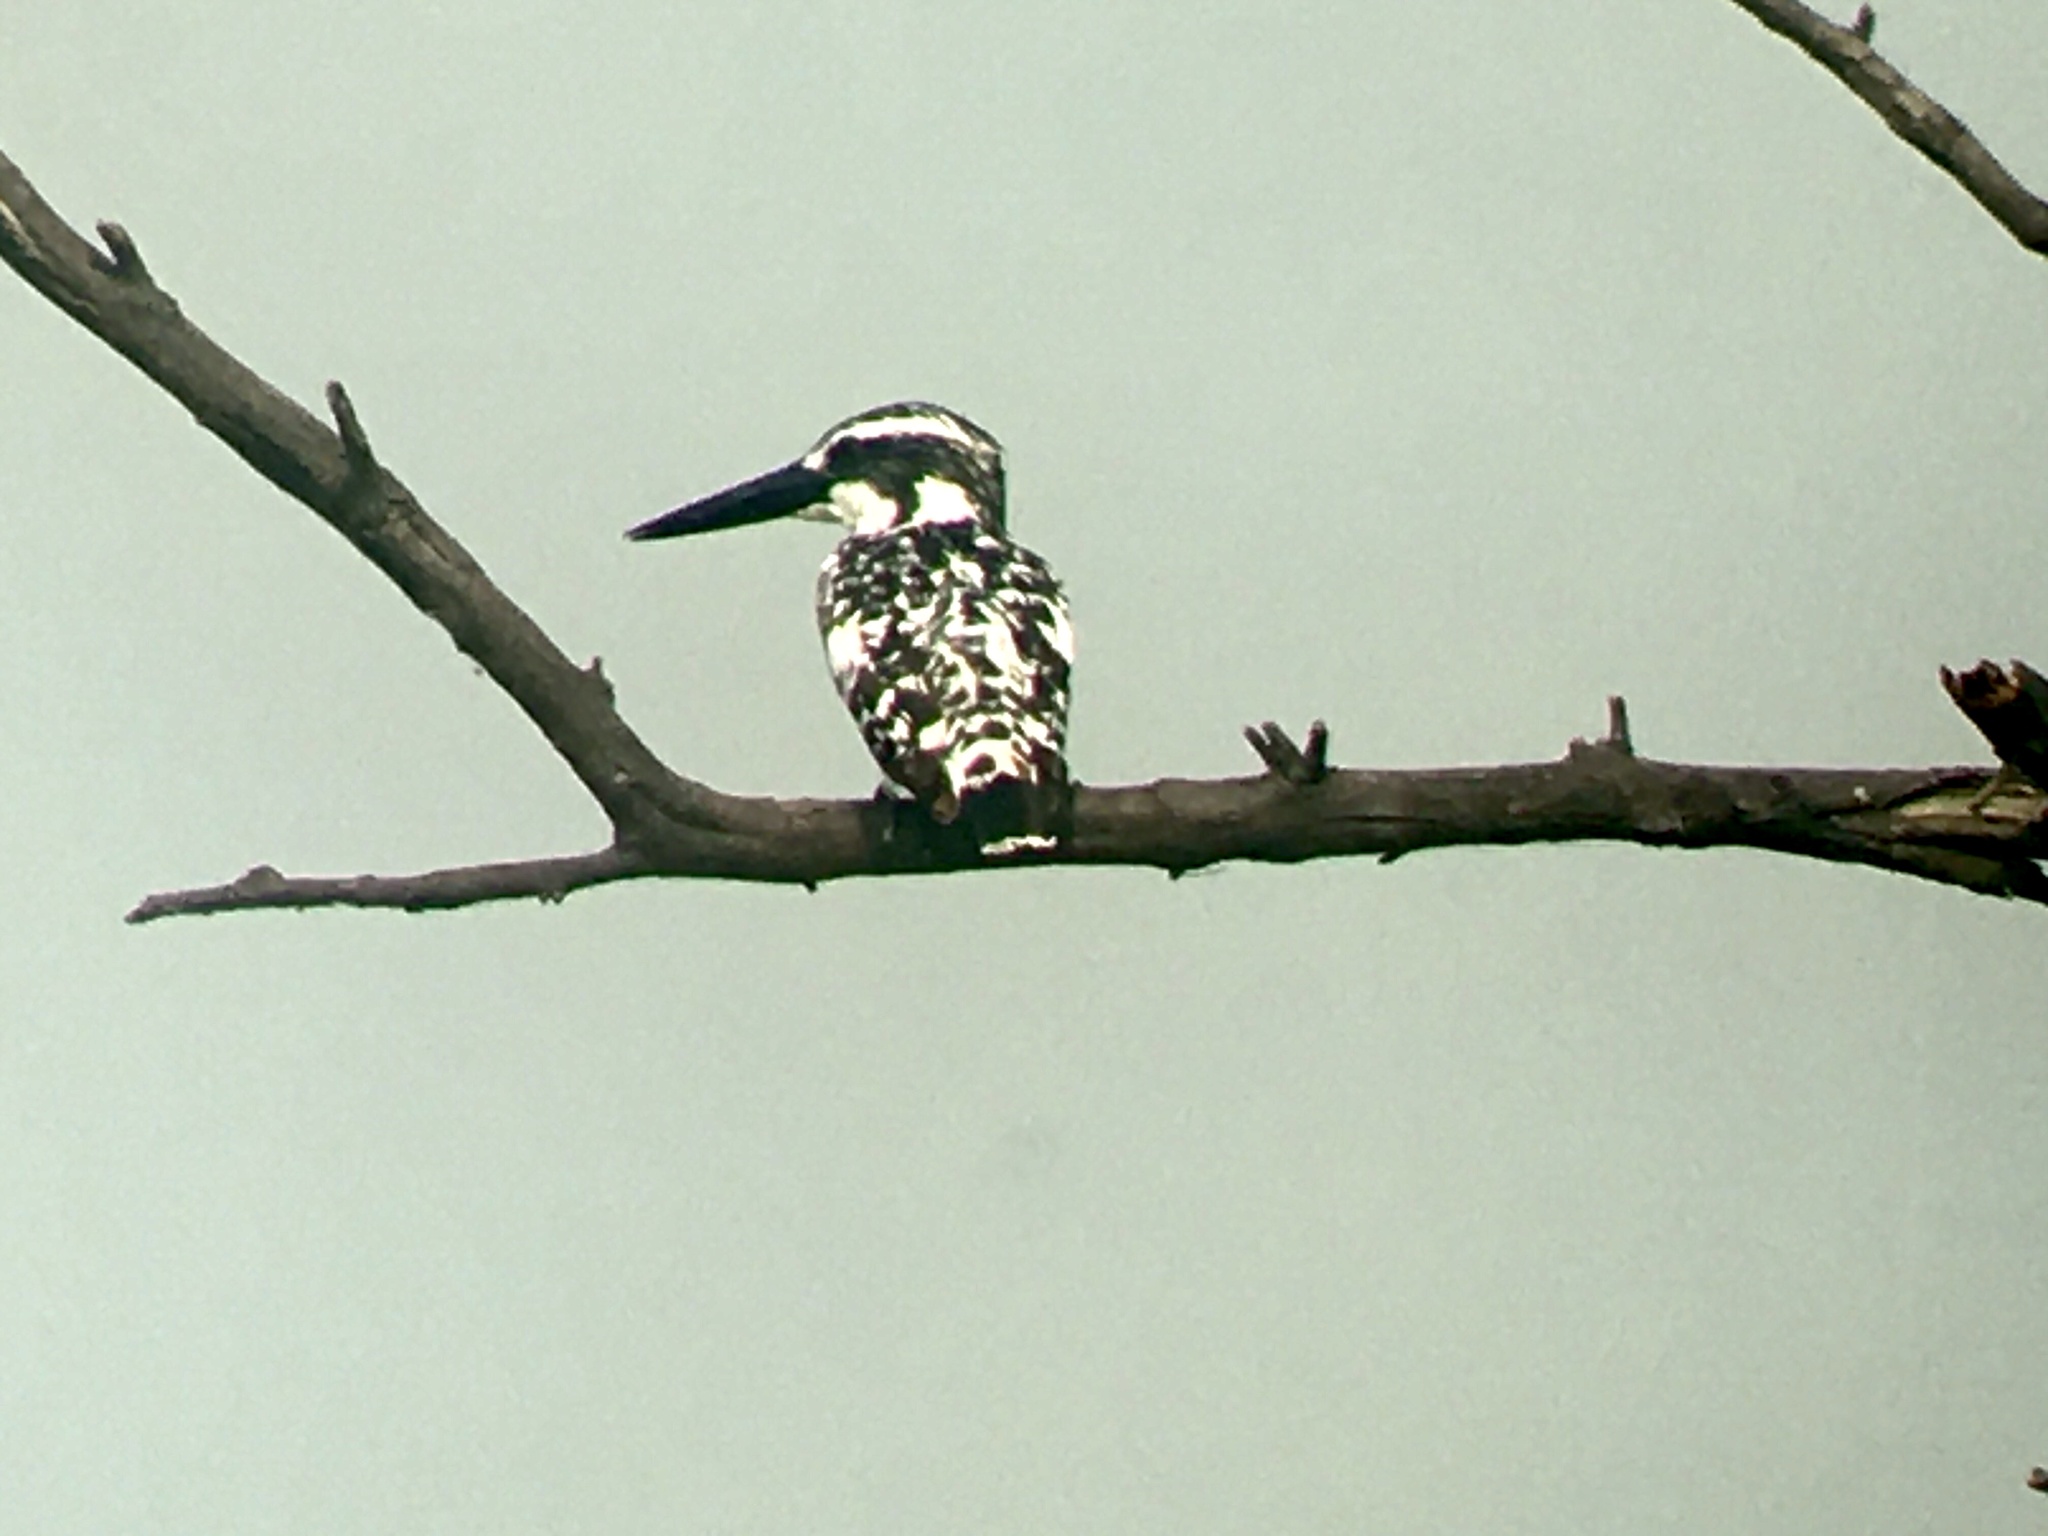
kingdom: Animalia
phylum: Chordata
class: Aves
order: Coraciiformes
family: Alcedinidae
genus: Ceryle
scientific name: Ceryle rudis
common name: Pied kingfisher
